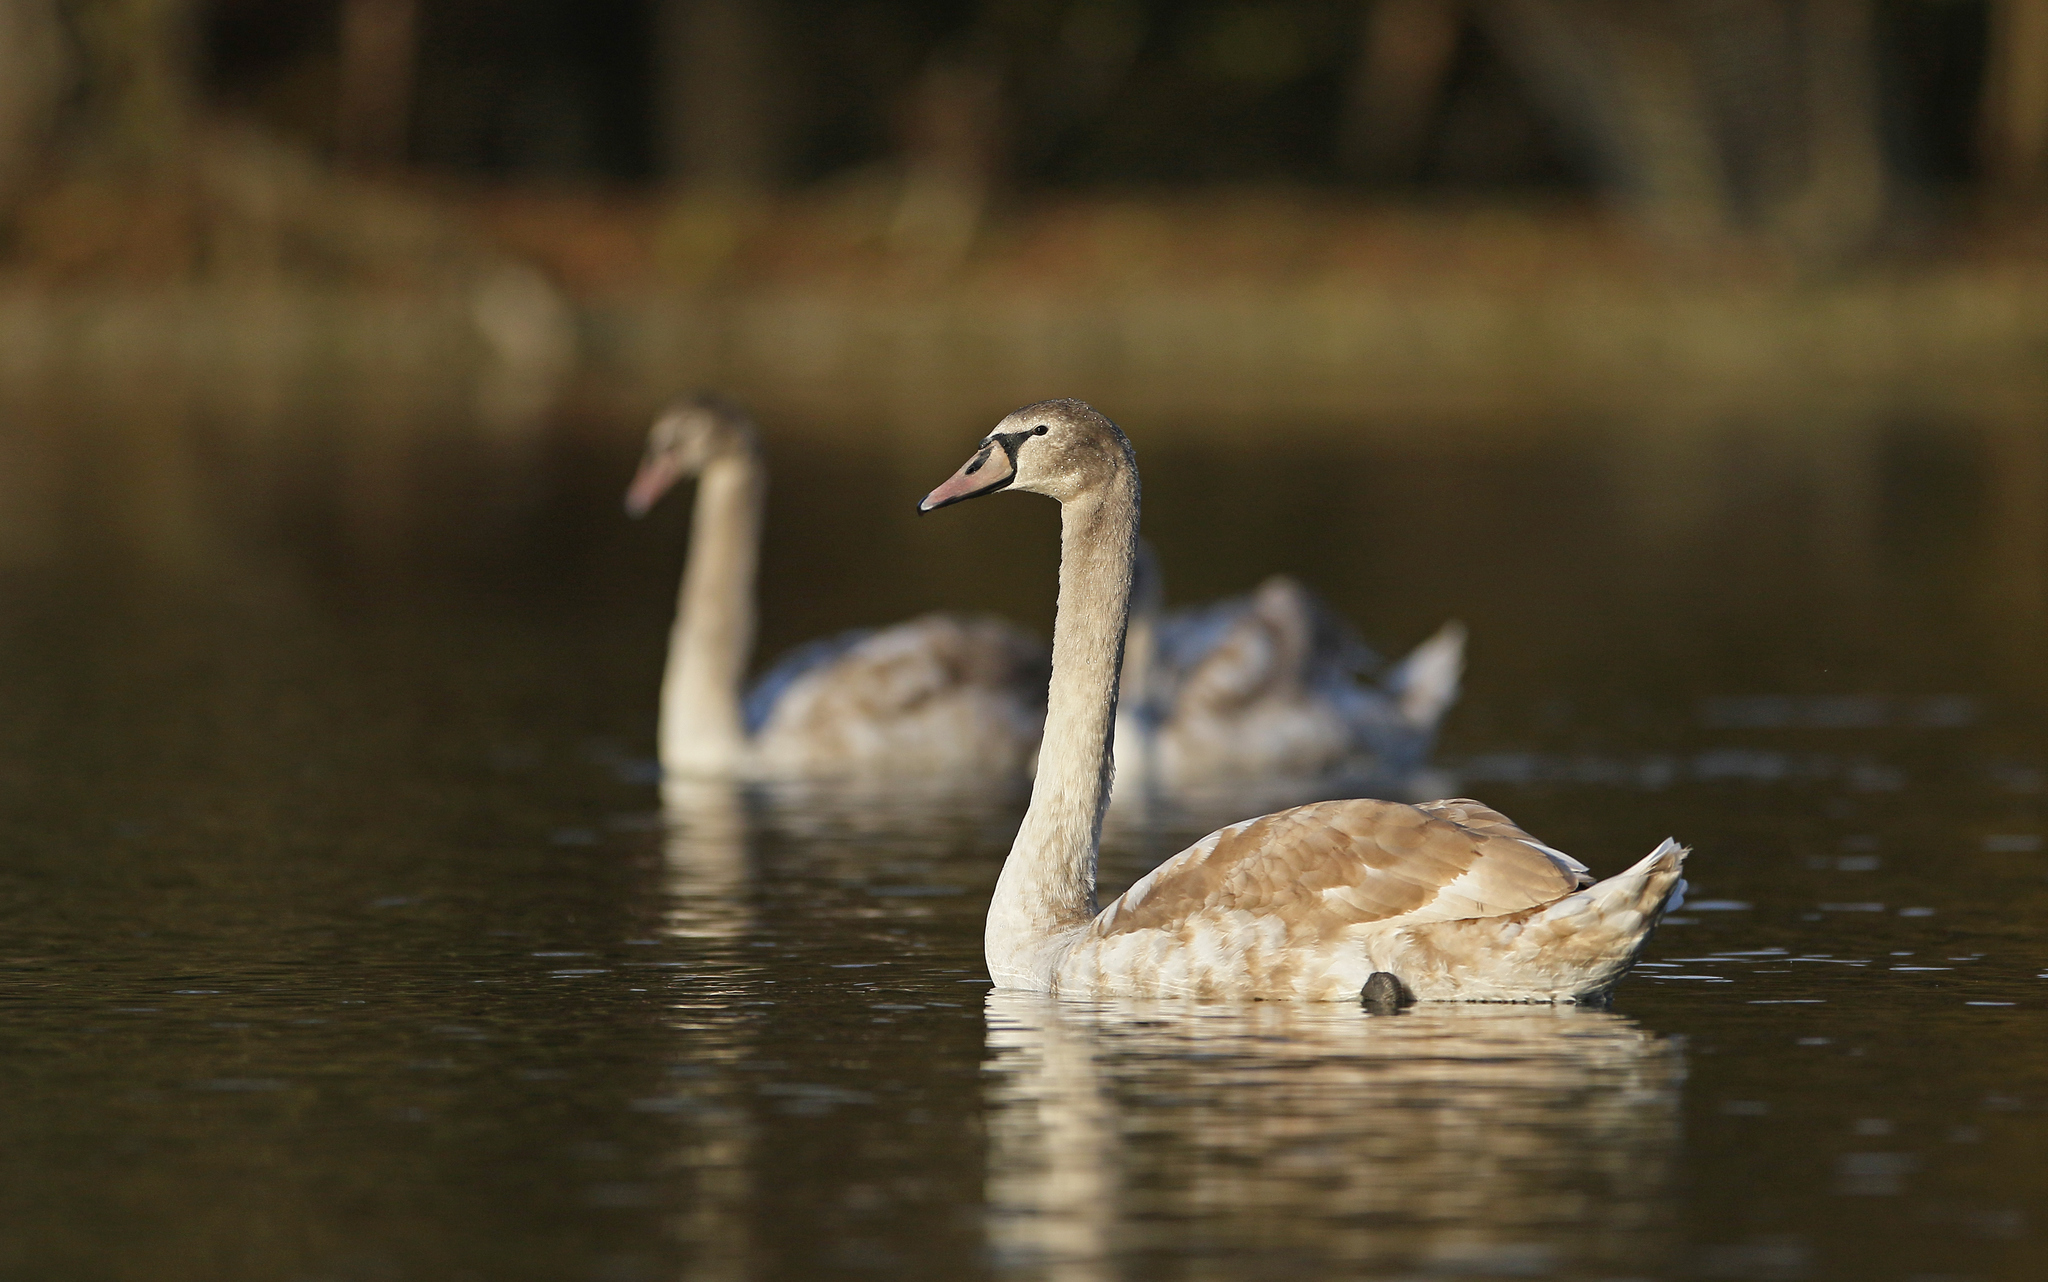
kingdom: Animalia
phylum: Chordata
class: Aves
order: Anseriformes
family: Anatidae
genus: Cygnus
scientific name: Cygnus olor
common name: Mute swan
